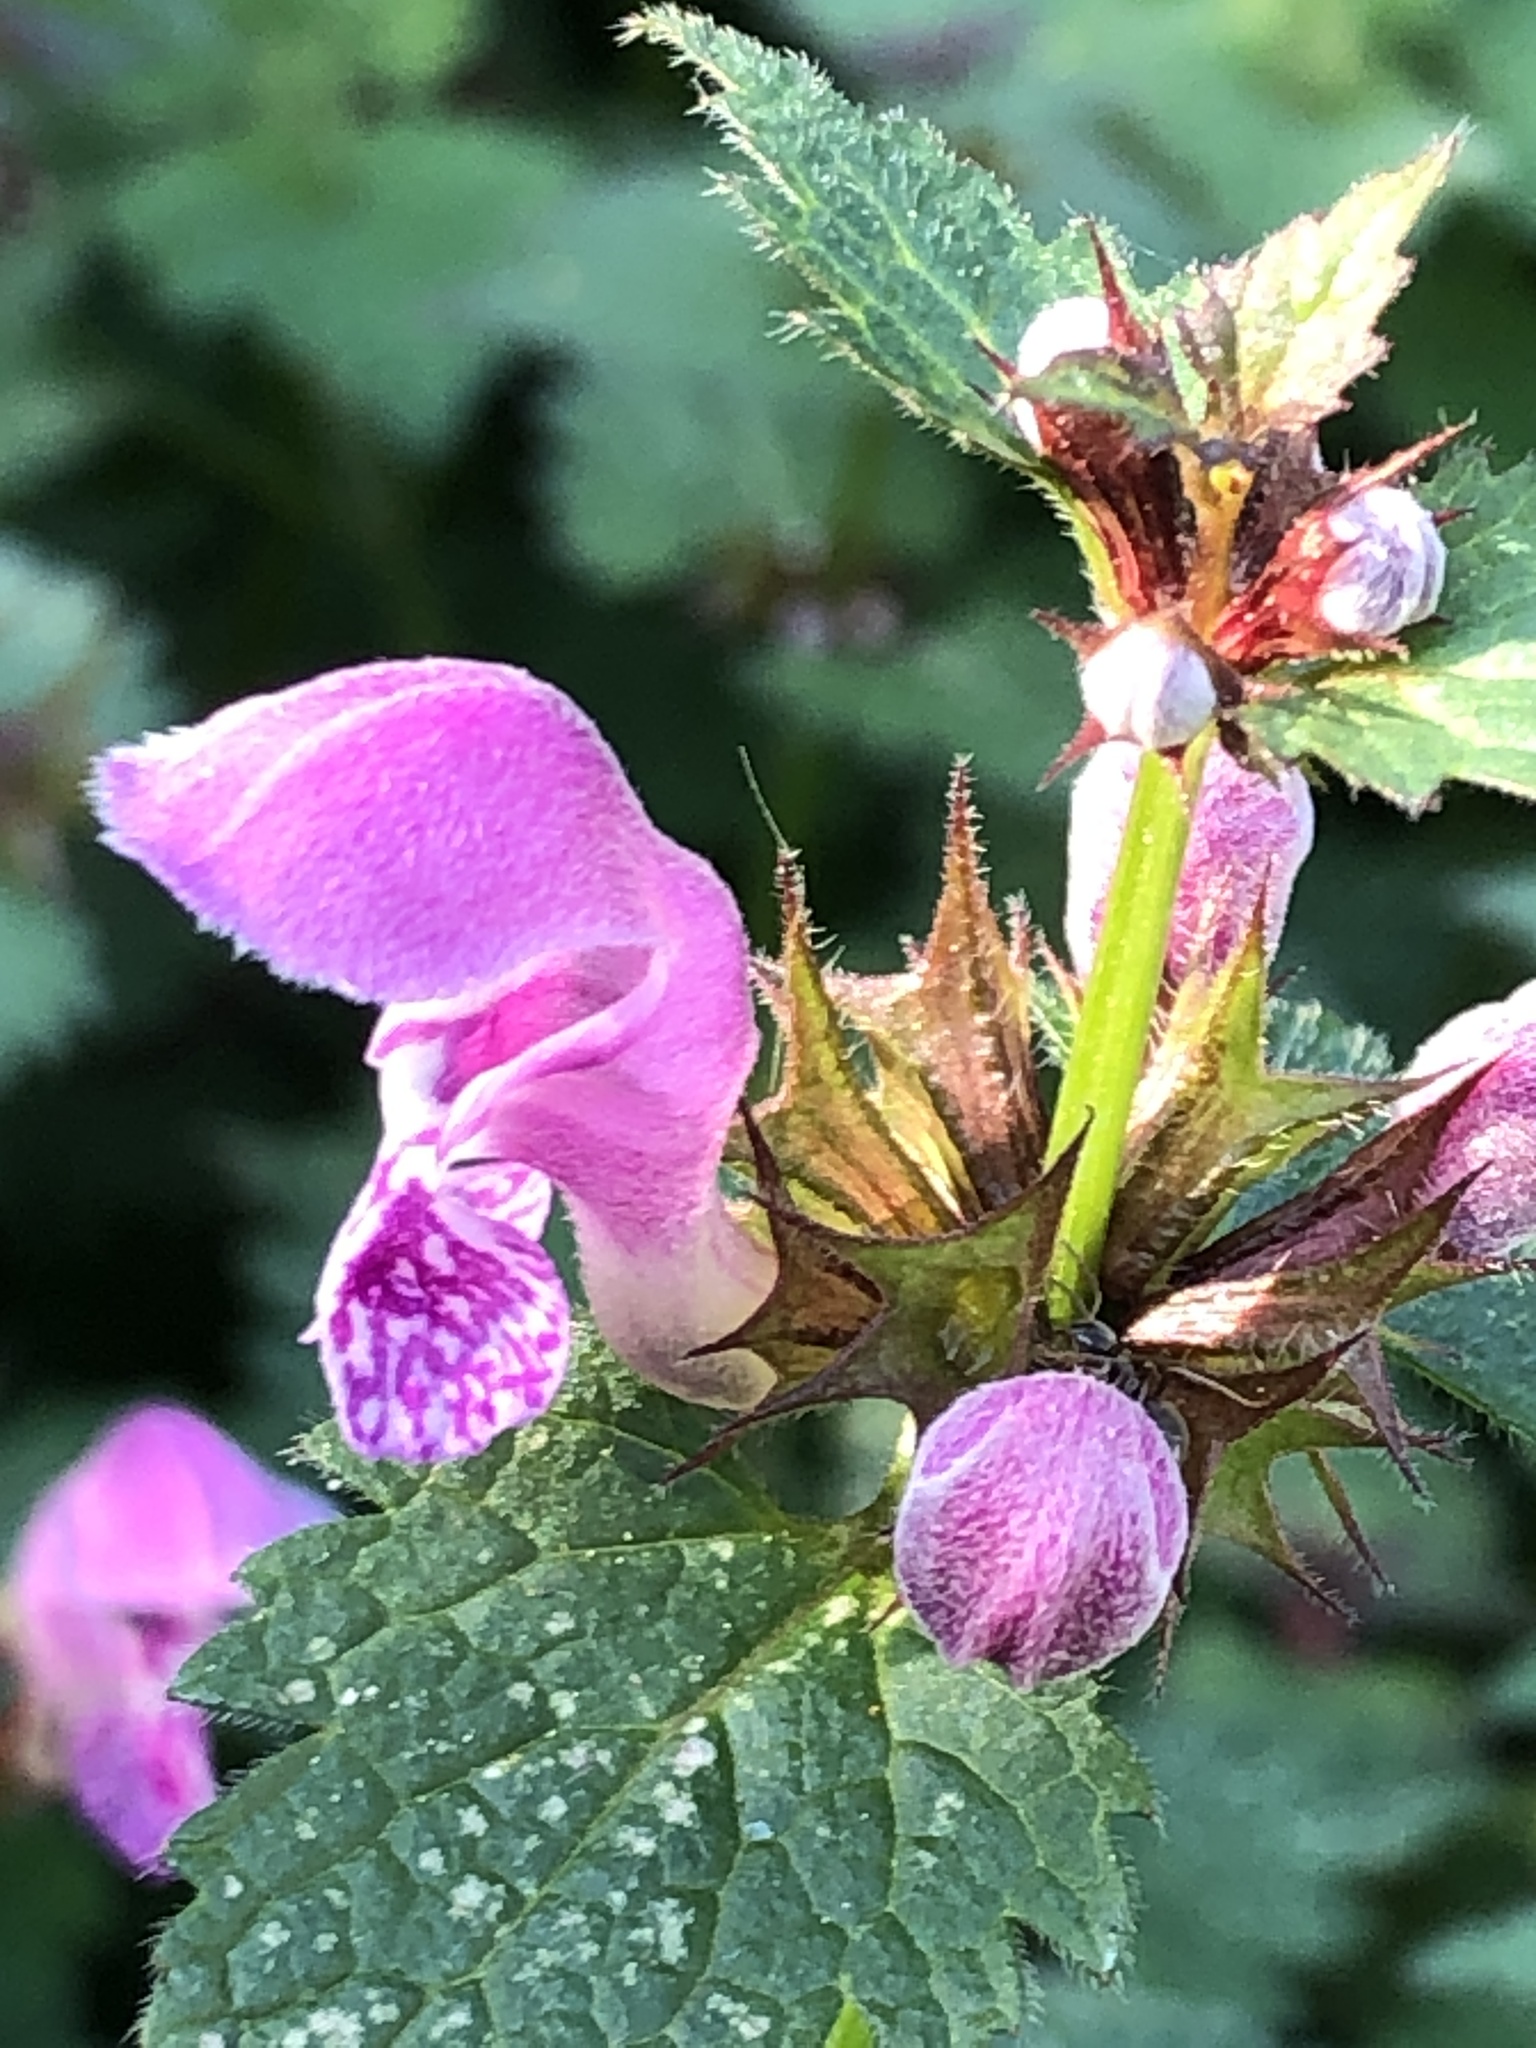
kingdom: Plantae
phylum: Tracheophyta
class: Magnoliopsida
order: Lamiales
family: Lamiaceae
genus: Lamium
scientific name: Lamium maculatum
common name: Spotted dead-nettle
